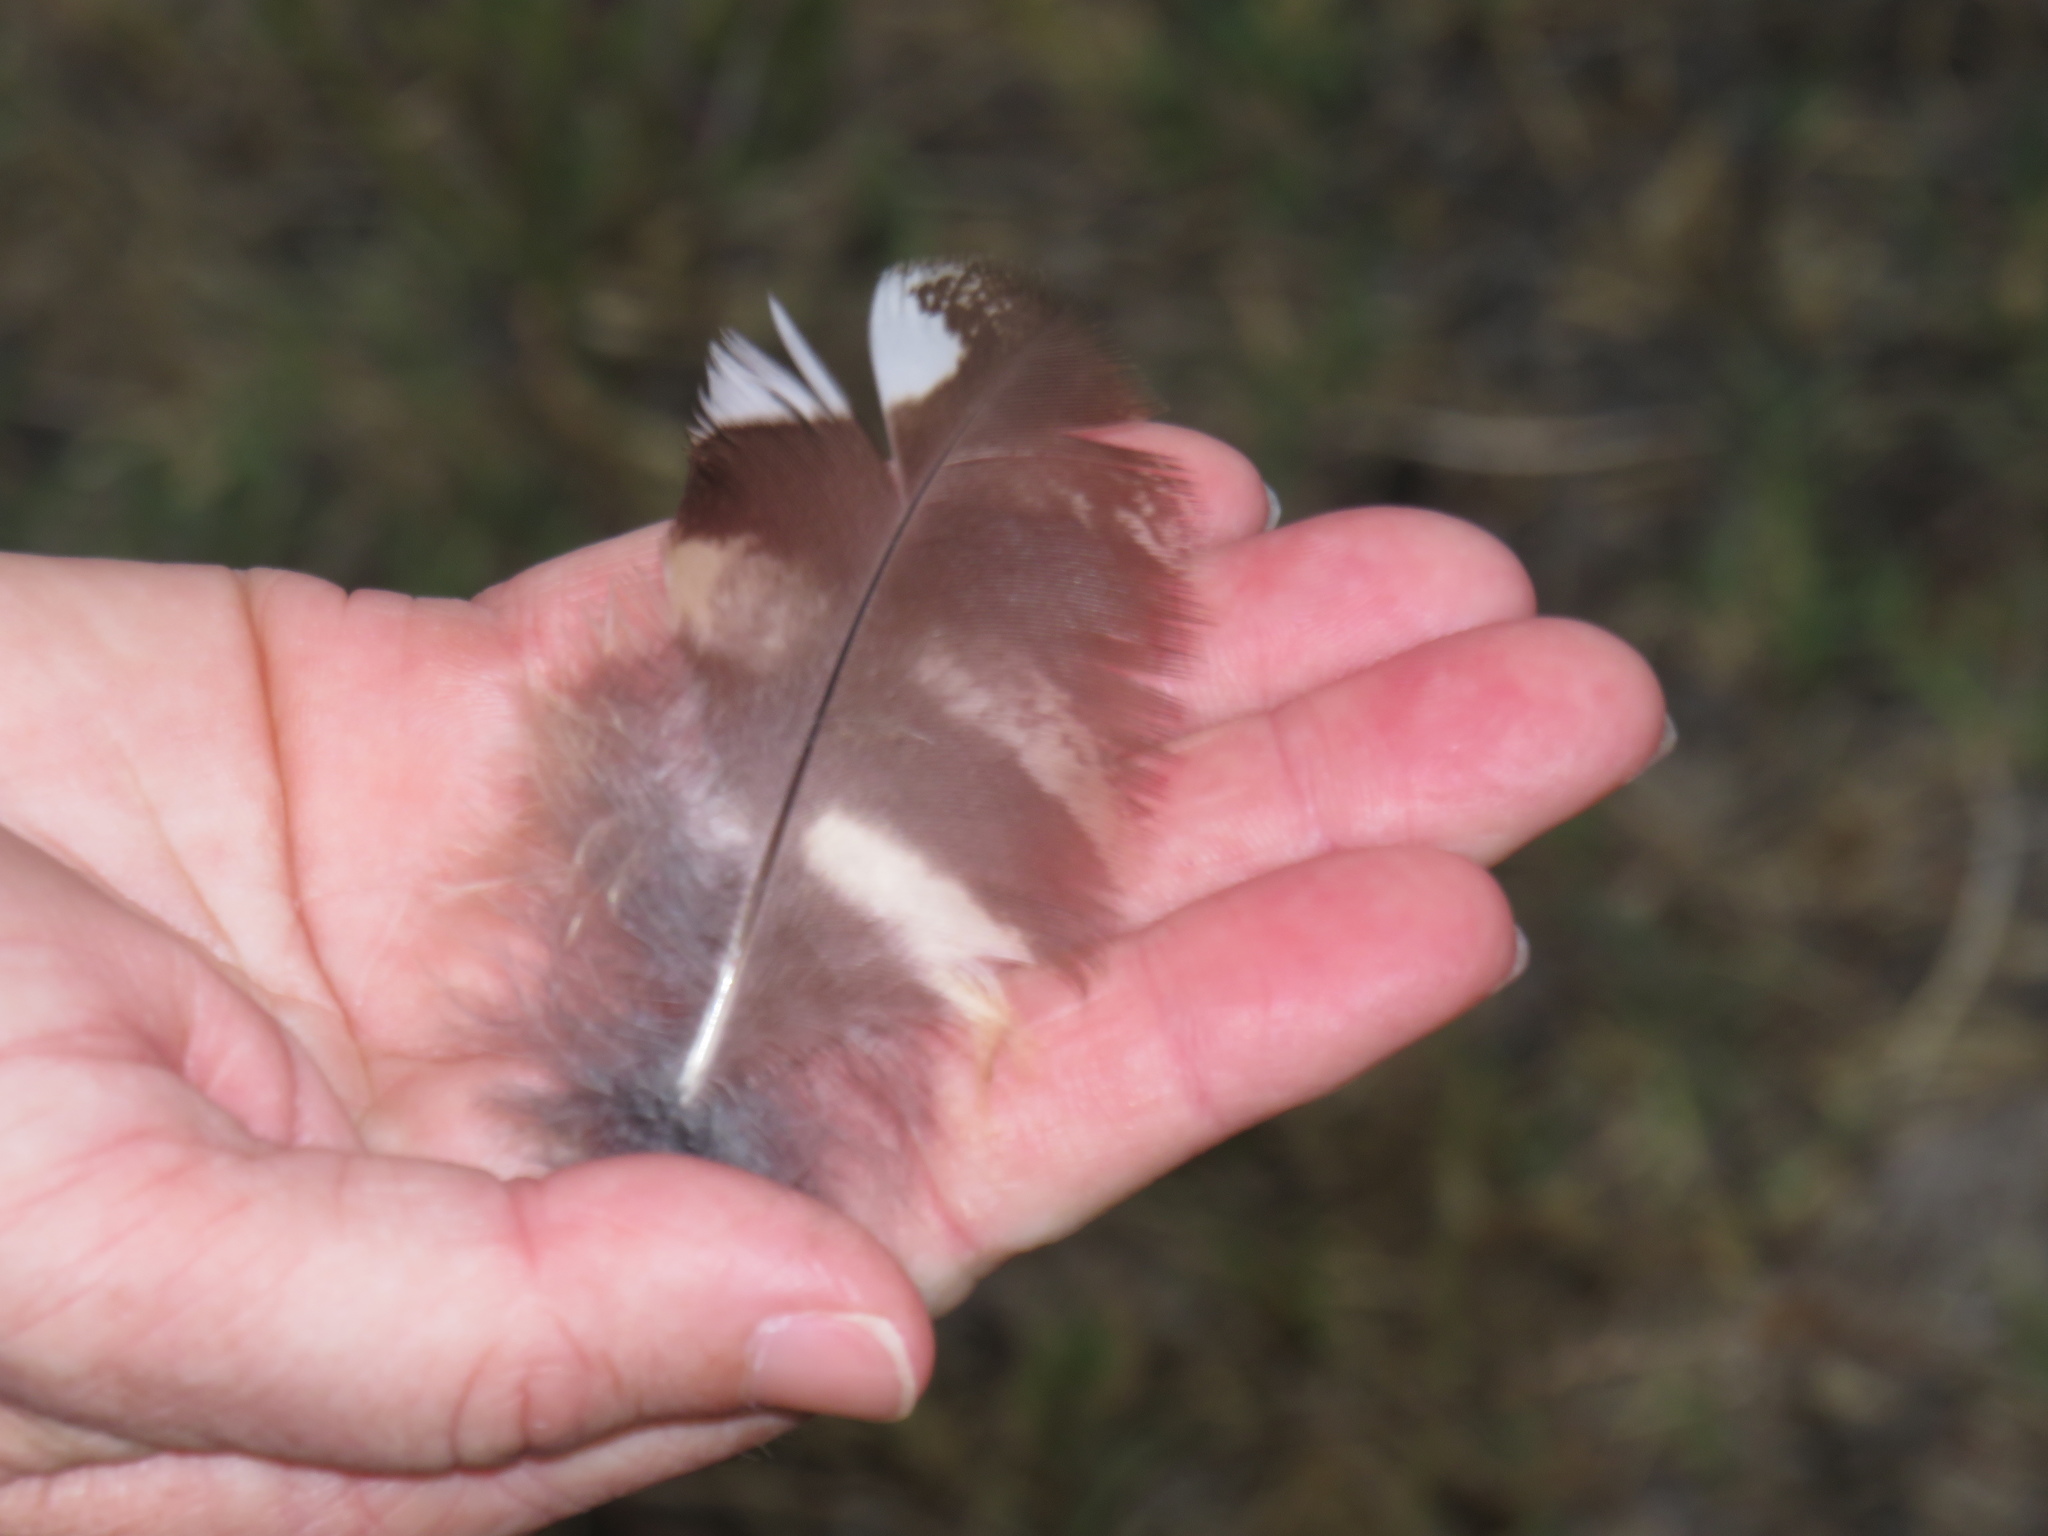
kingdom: Animalia
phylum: Chordata
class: Aves
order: Strigiformes
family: Strigidae
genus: Bubo
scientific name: Bubo africanus
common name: Spotted eagle-owl
